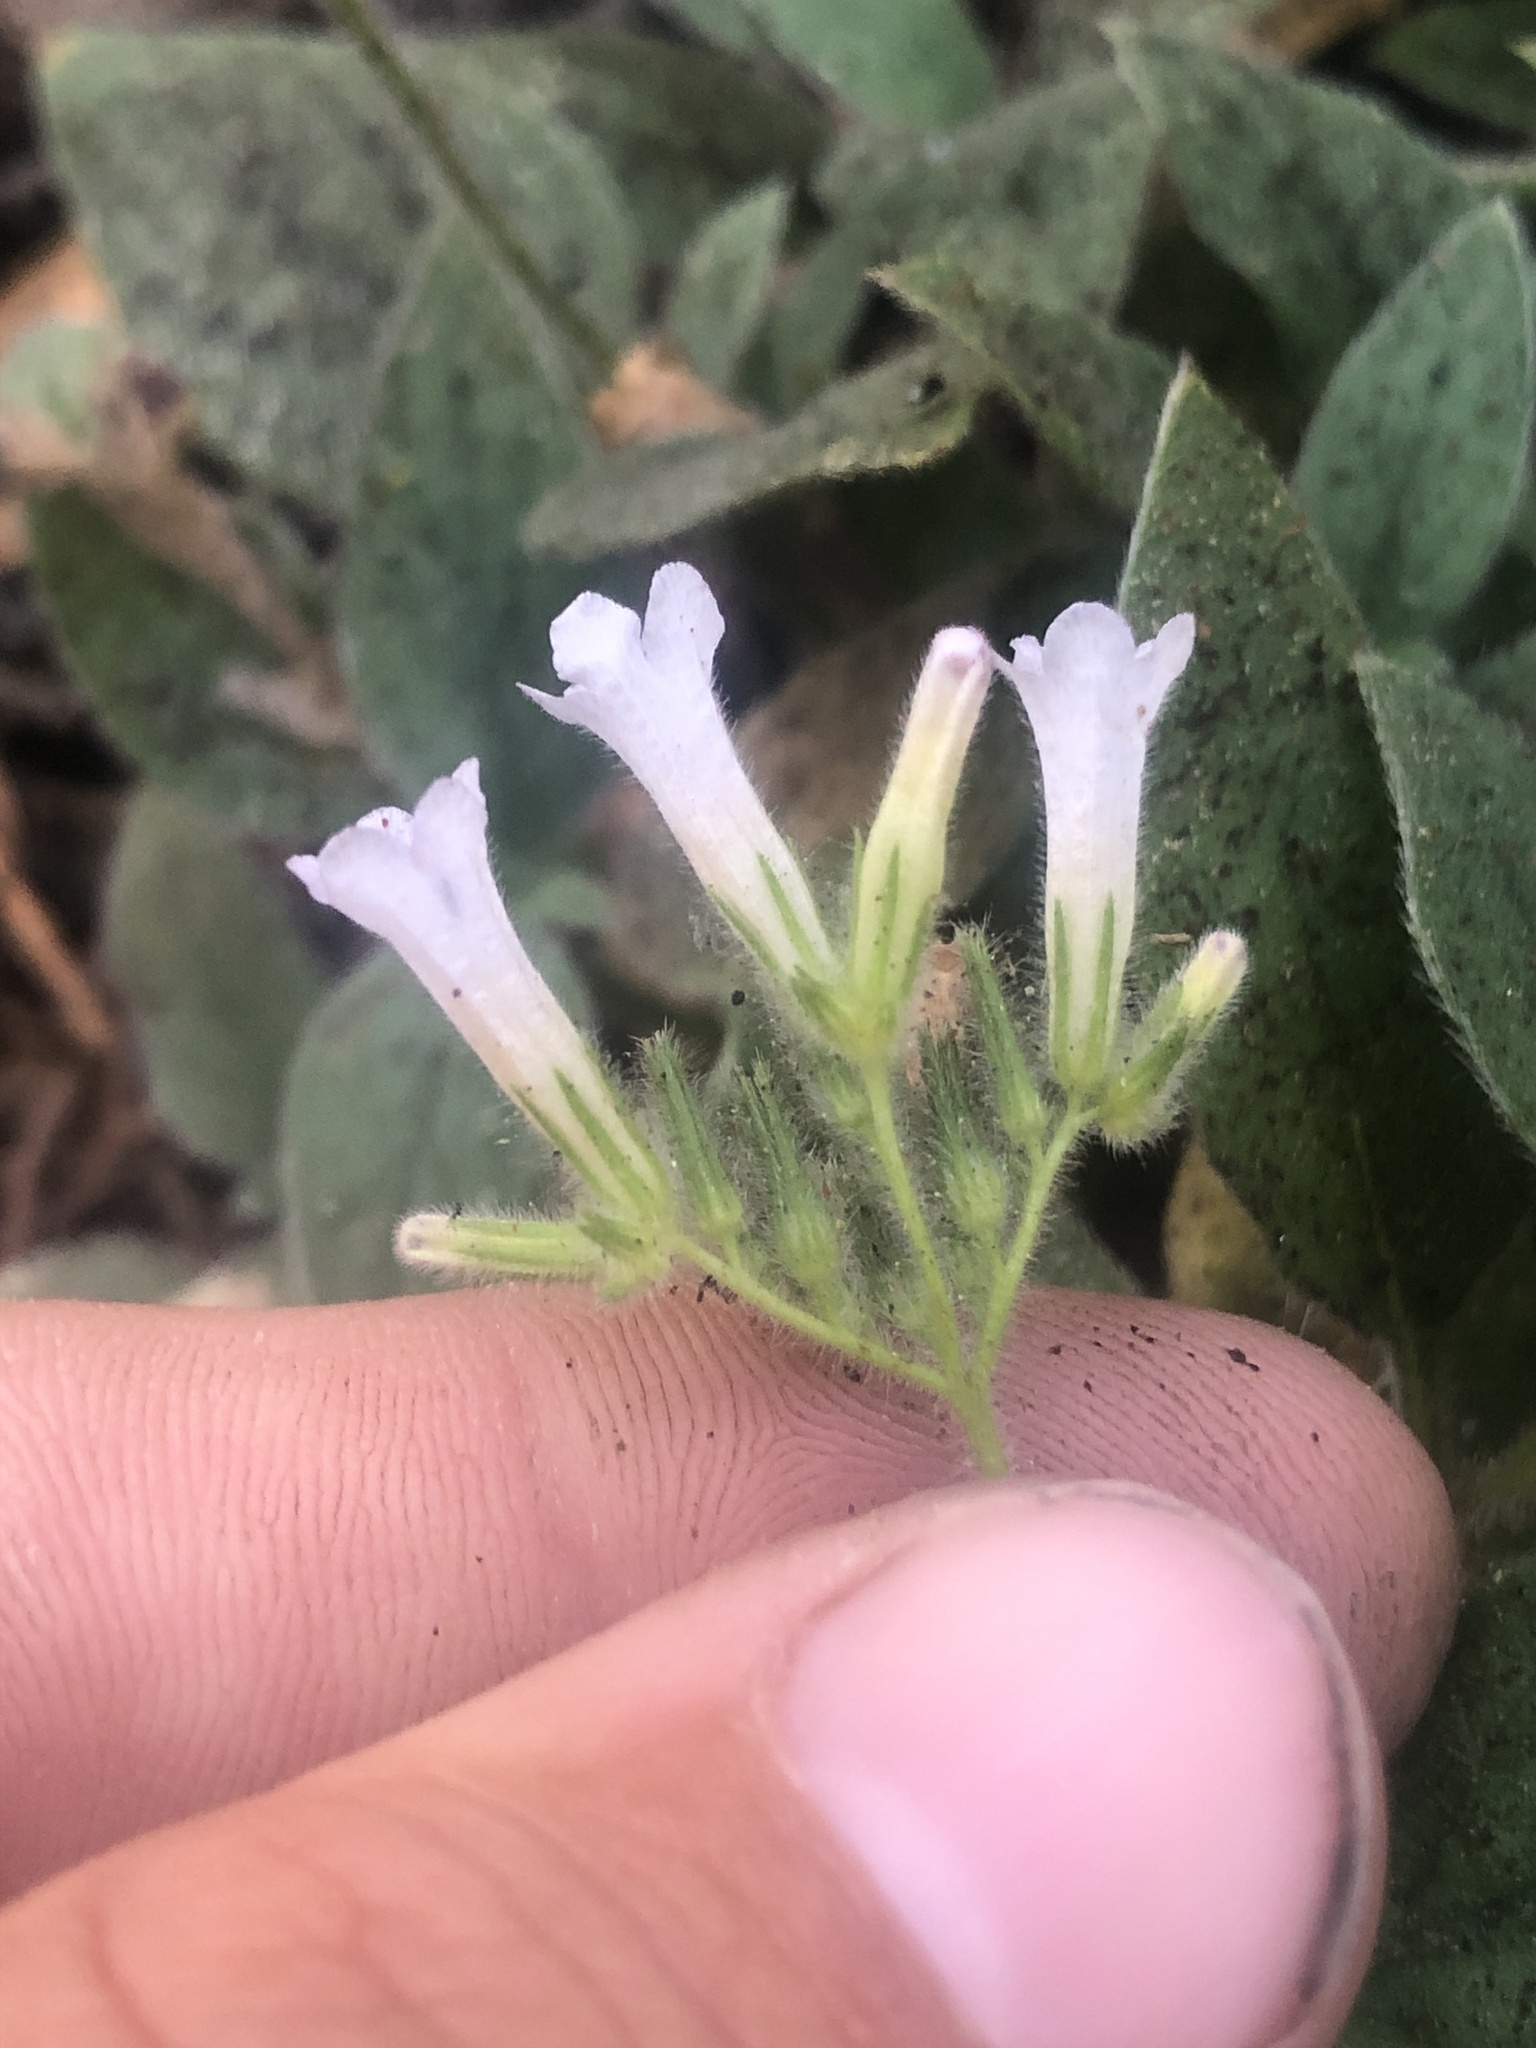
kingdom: Plantae
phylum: Tracheophyta
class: Magnoliopsida
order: Boraginales
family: Hydrophyllaceae
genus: Draperia
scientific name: Draperia systyla
